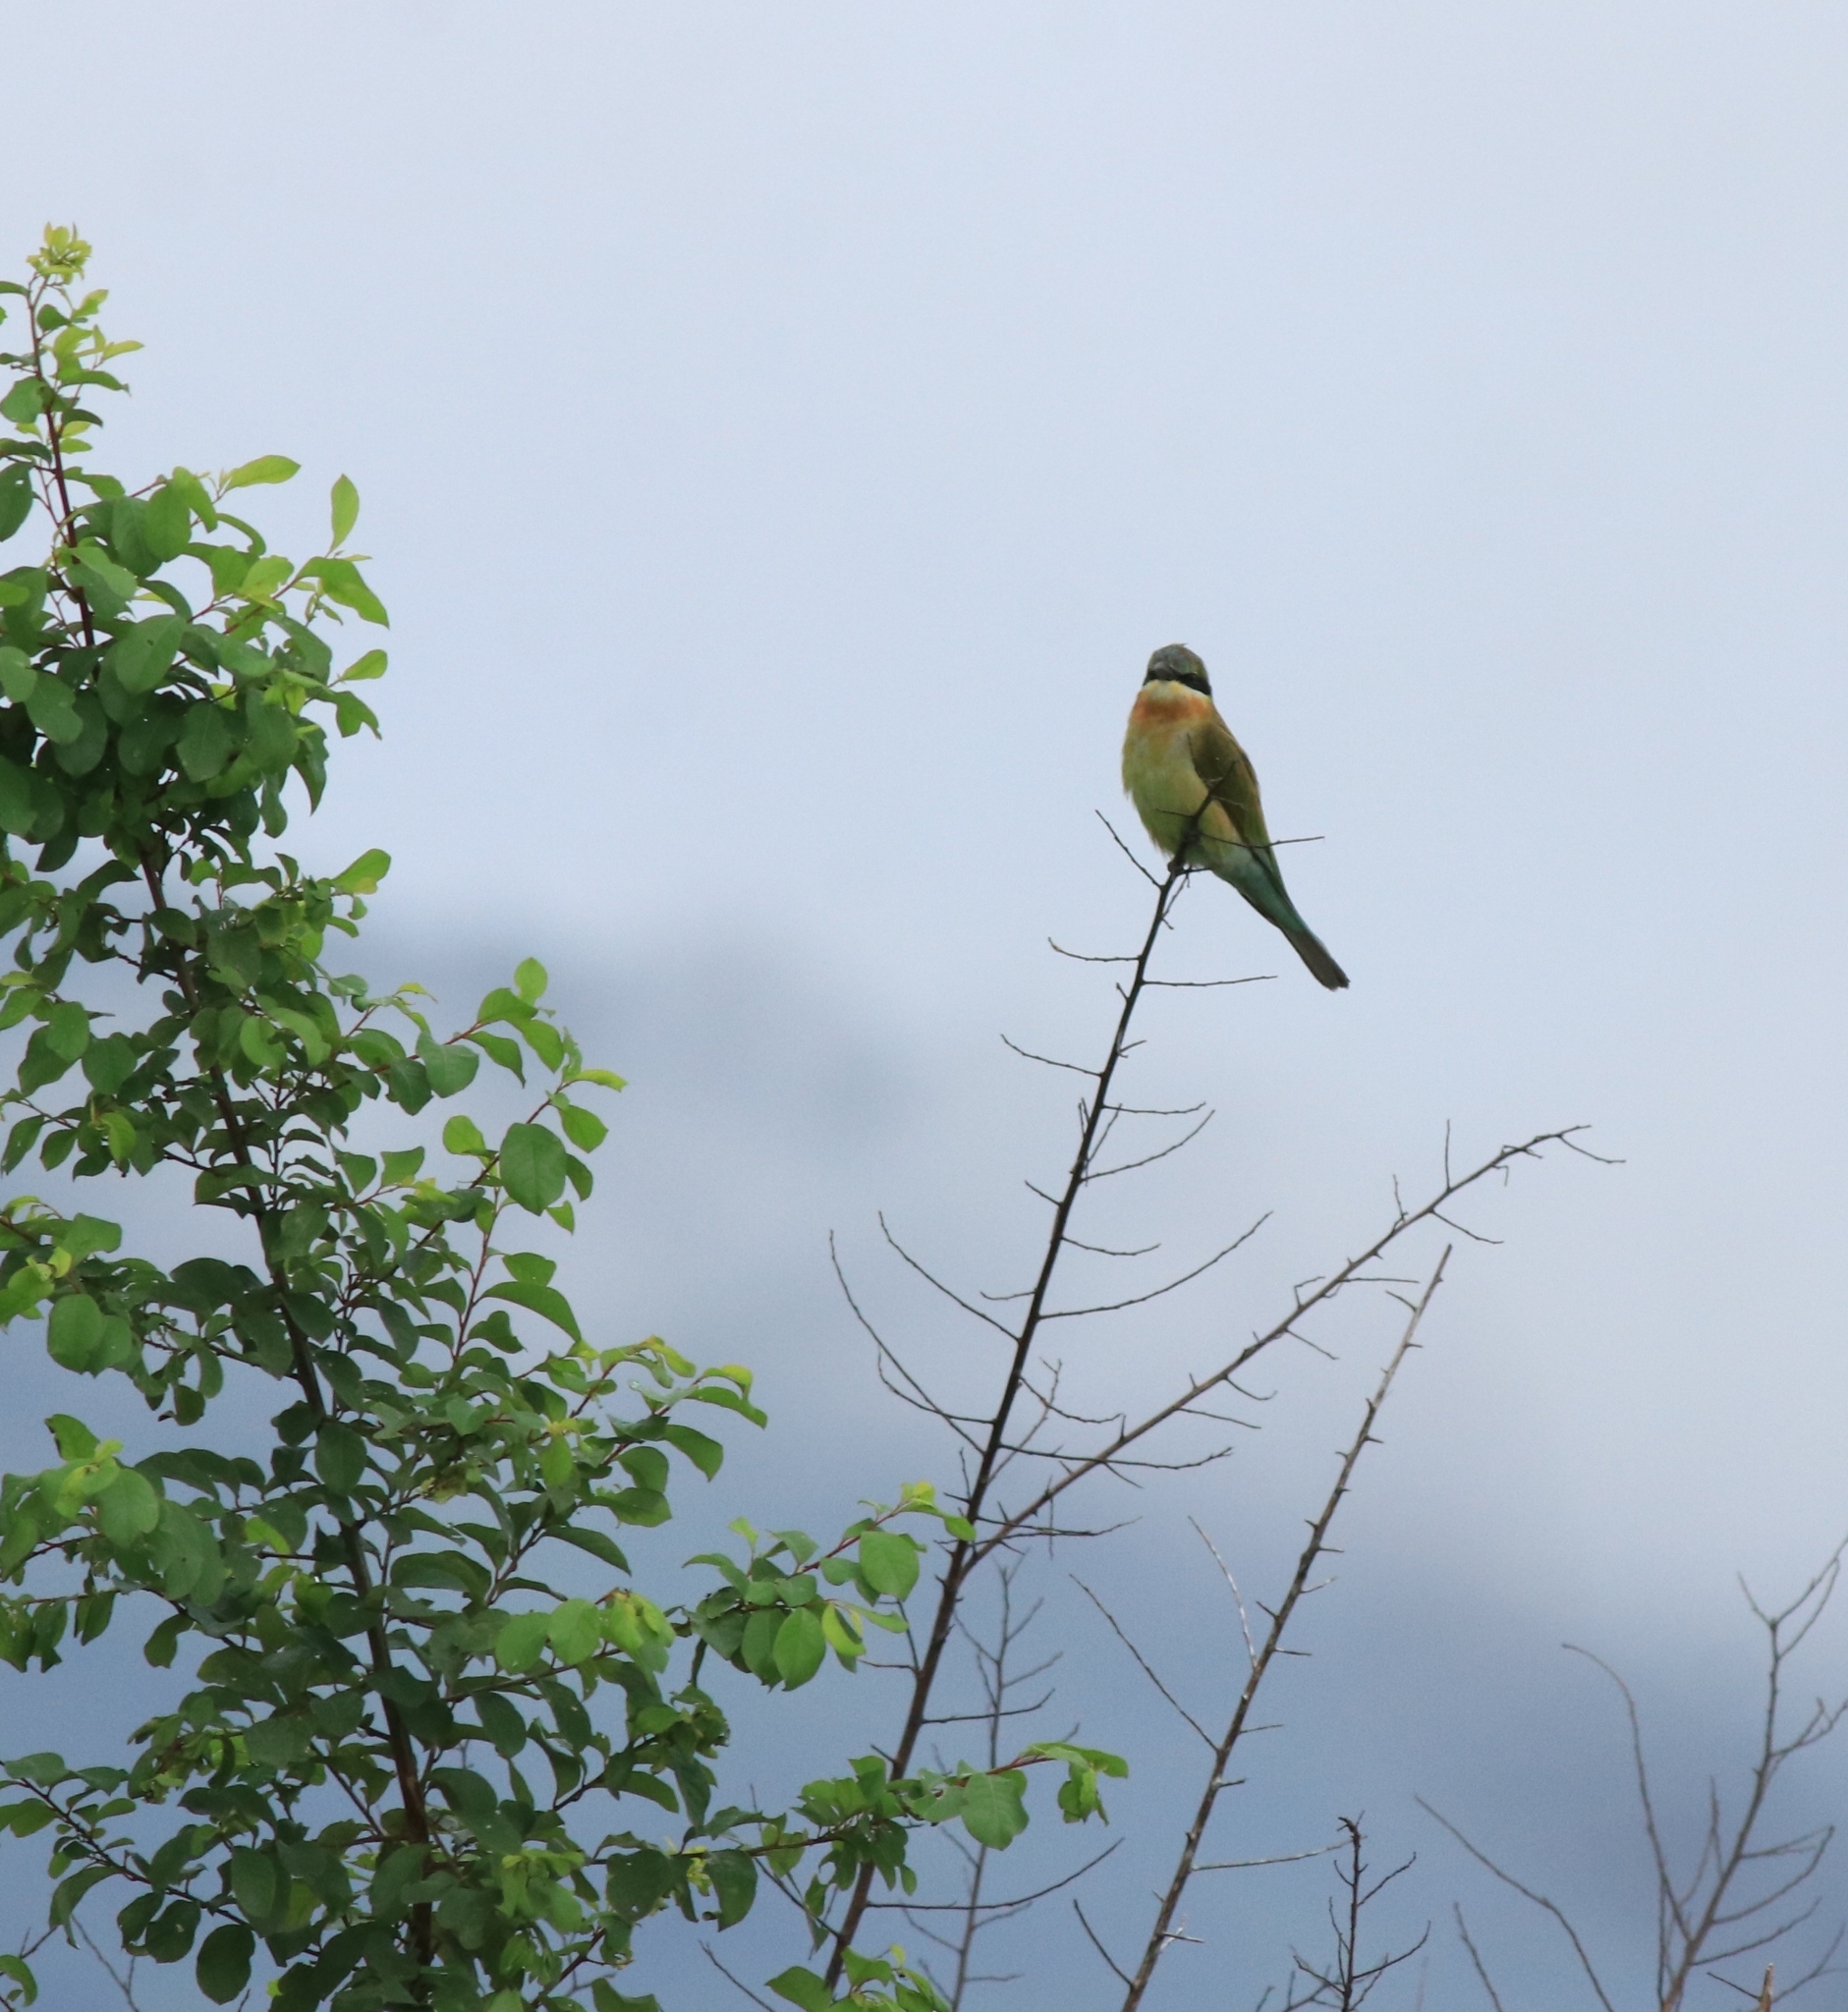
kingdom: Animalia
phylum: Chordata
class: Aves
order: Coraciiformes
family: Meropidae
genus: Merops
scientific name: Merops philippinus
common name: Blue-tailed bee-eater
